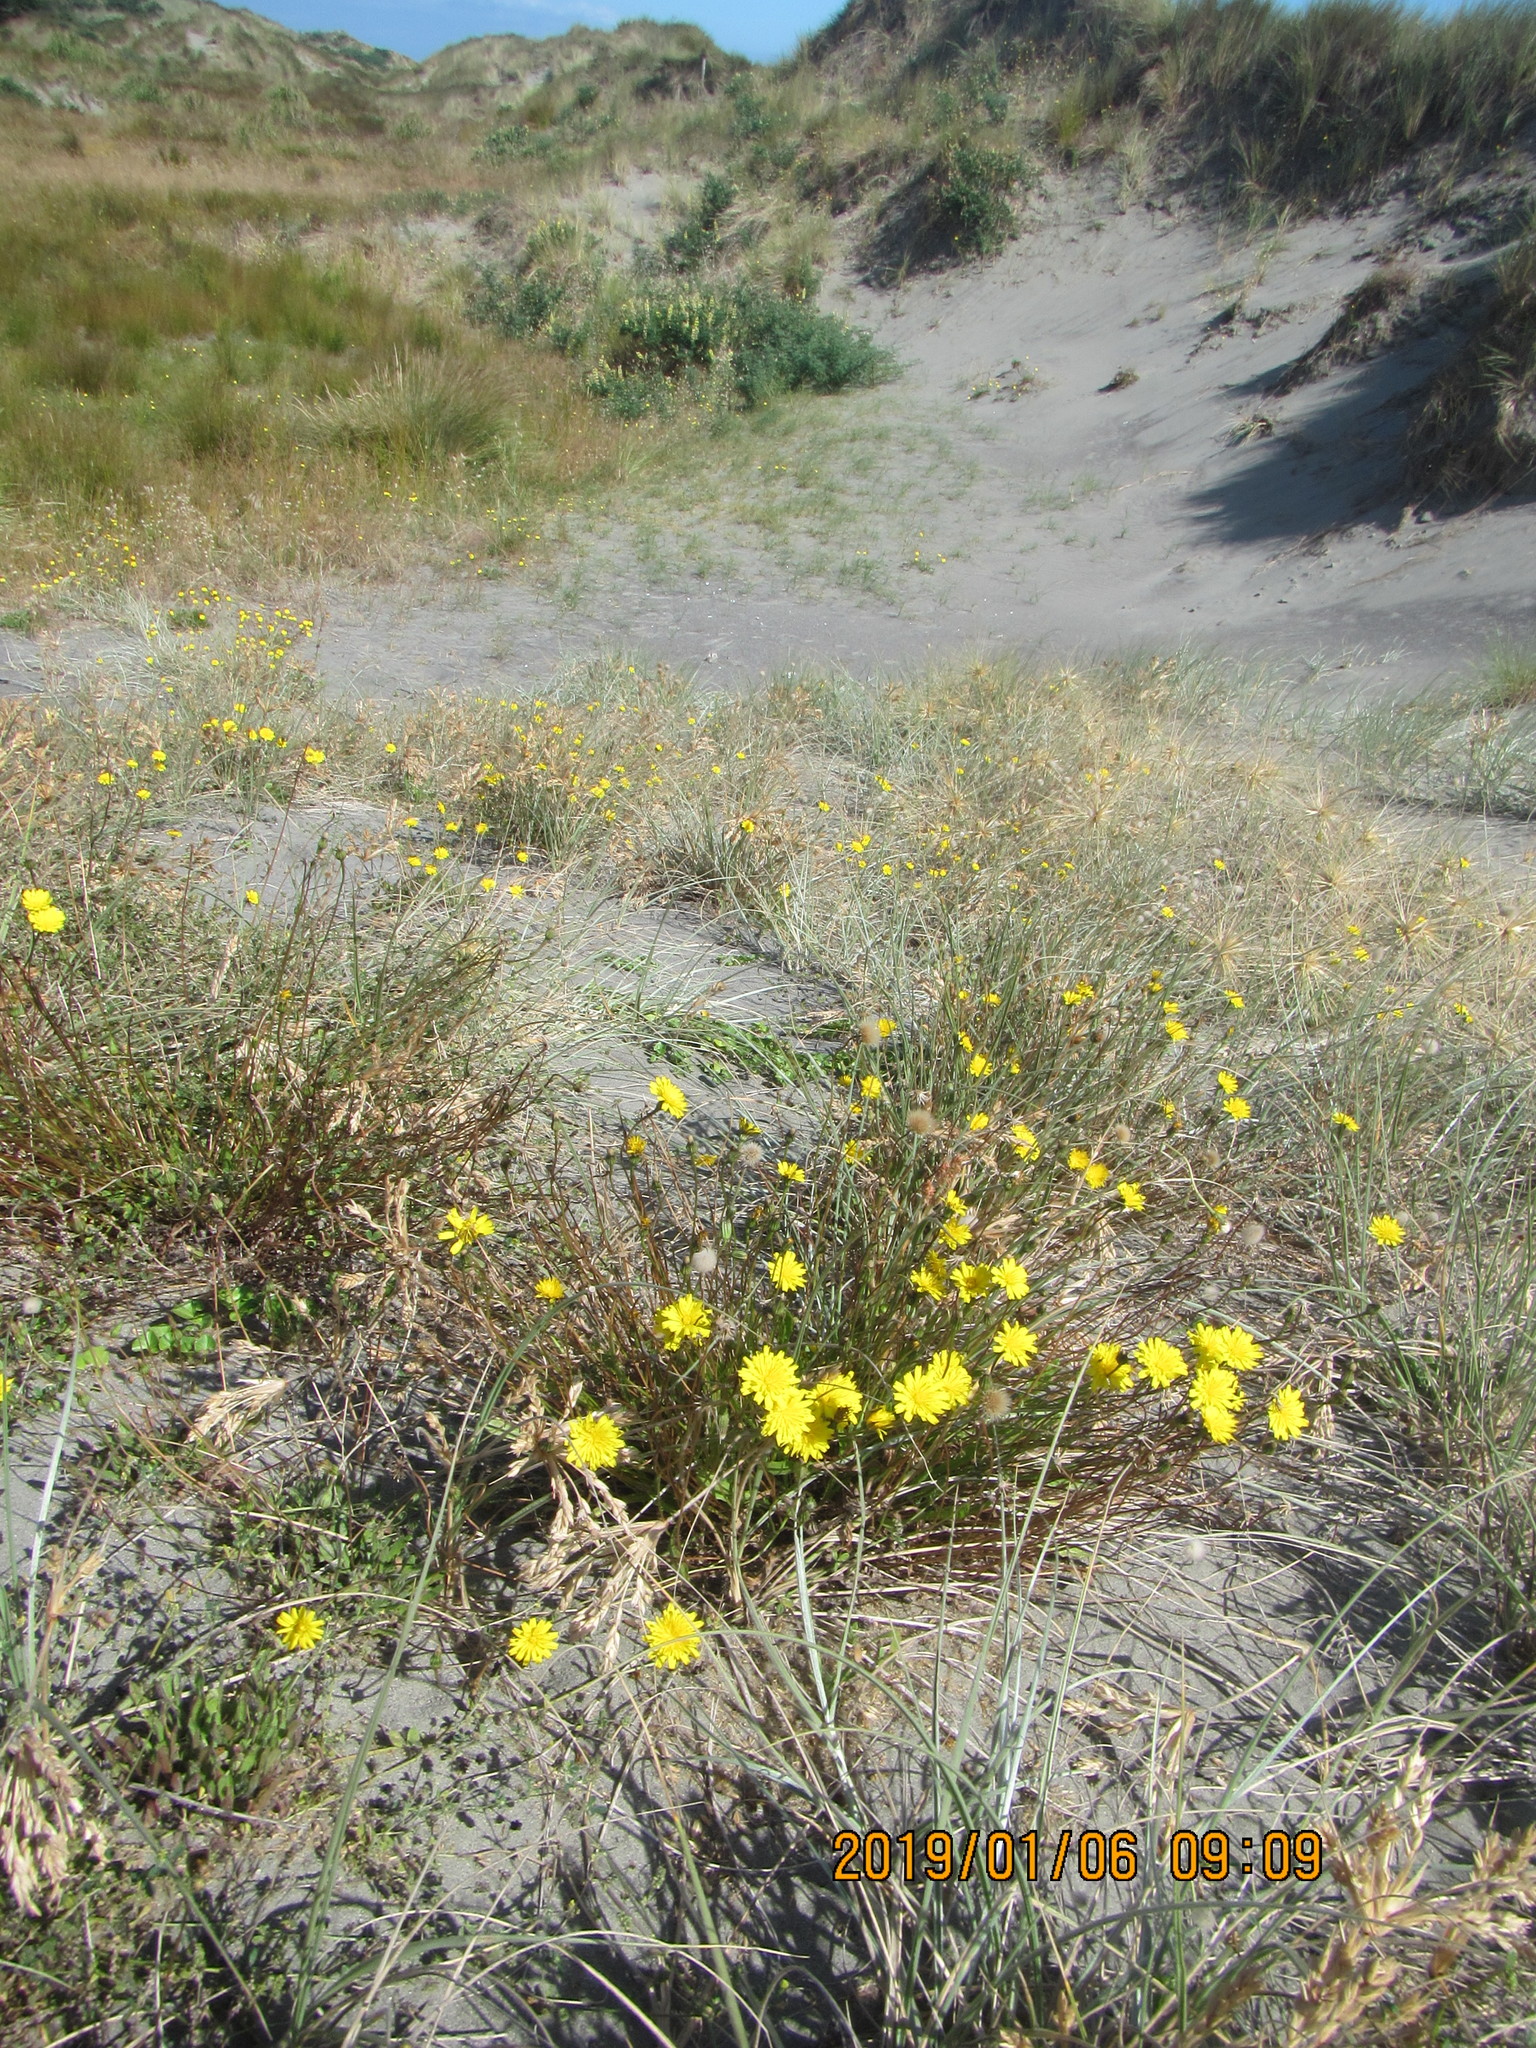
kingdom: Plantae
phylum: Tracheophyta
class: Magnoliopsida
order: Asterales
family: Asteraceae
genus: Hypochaeris
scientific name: Hypochaeris radicata
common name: Flatweed
